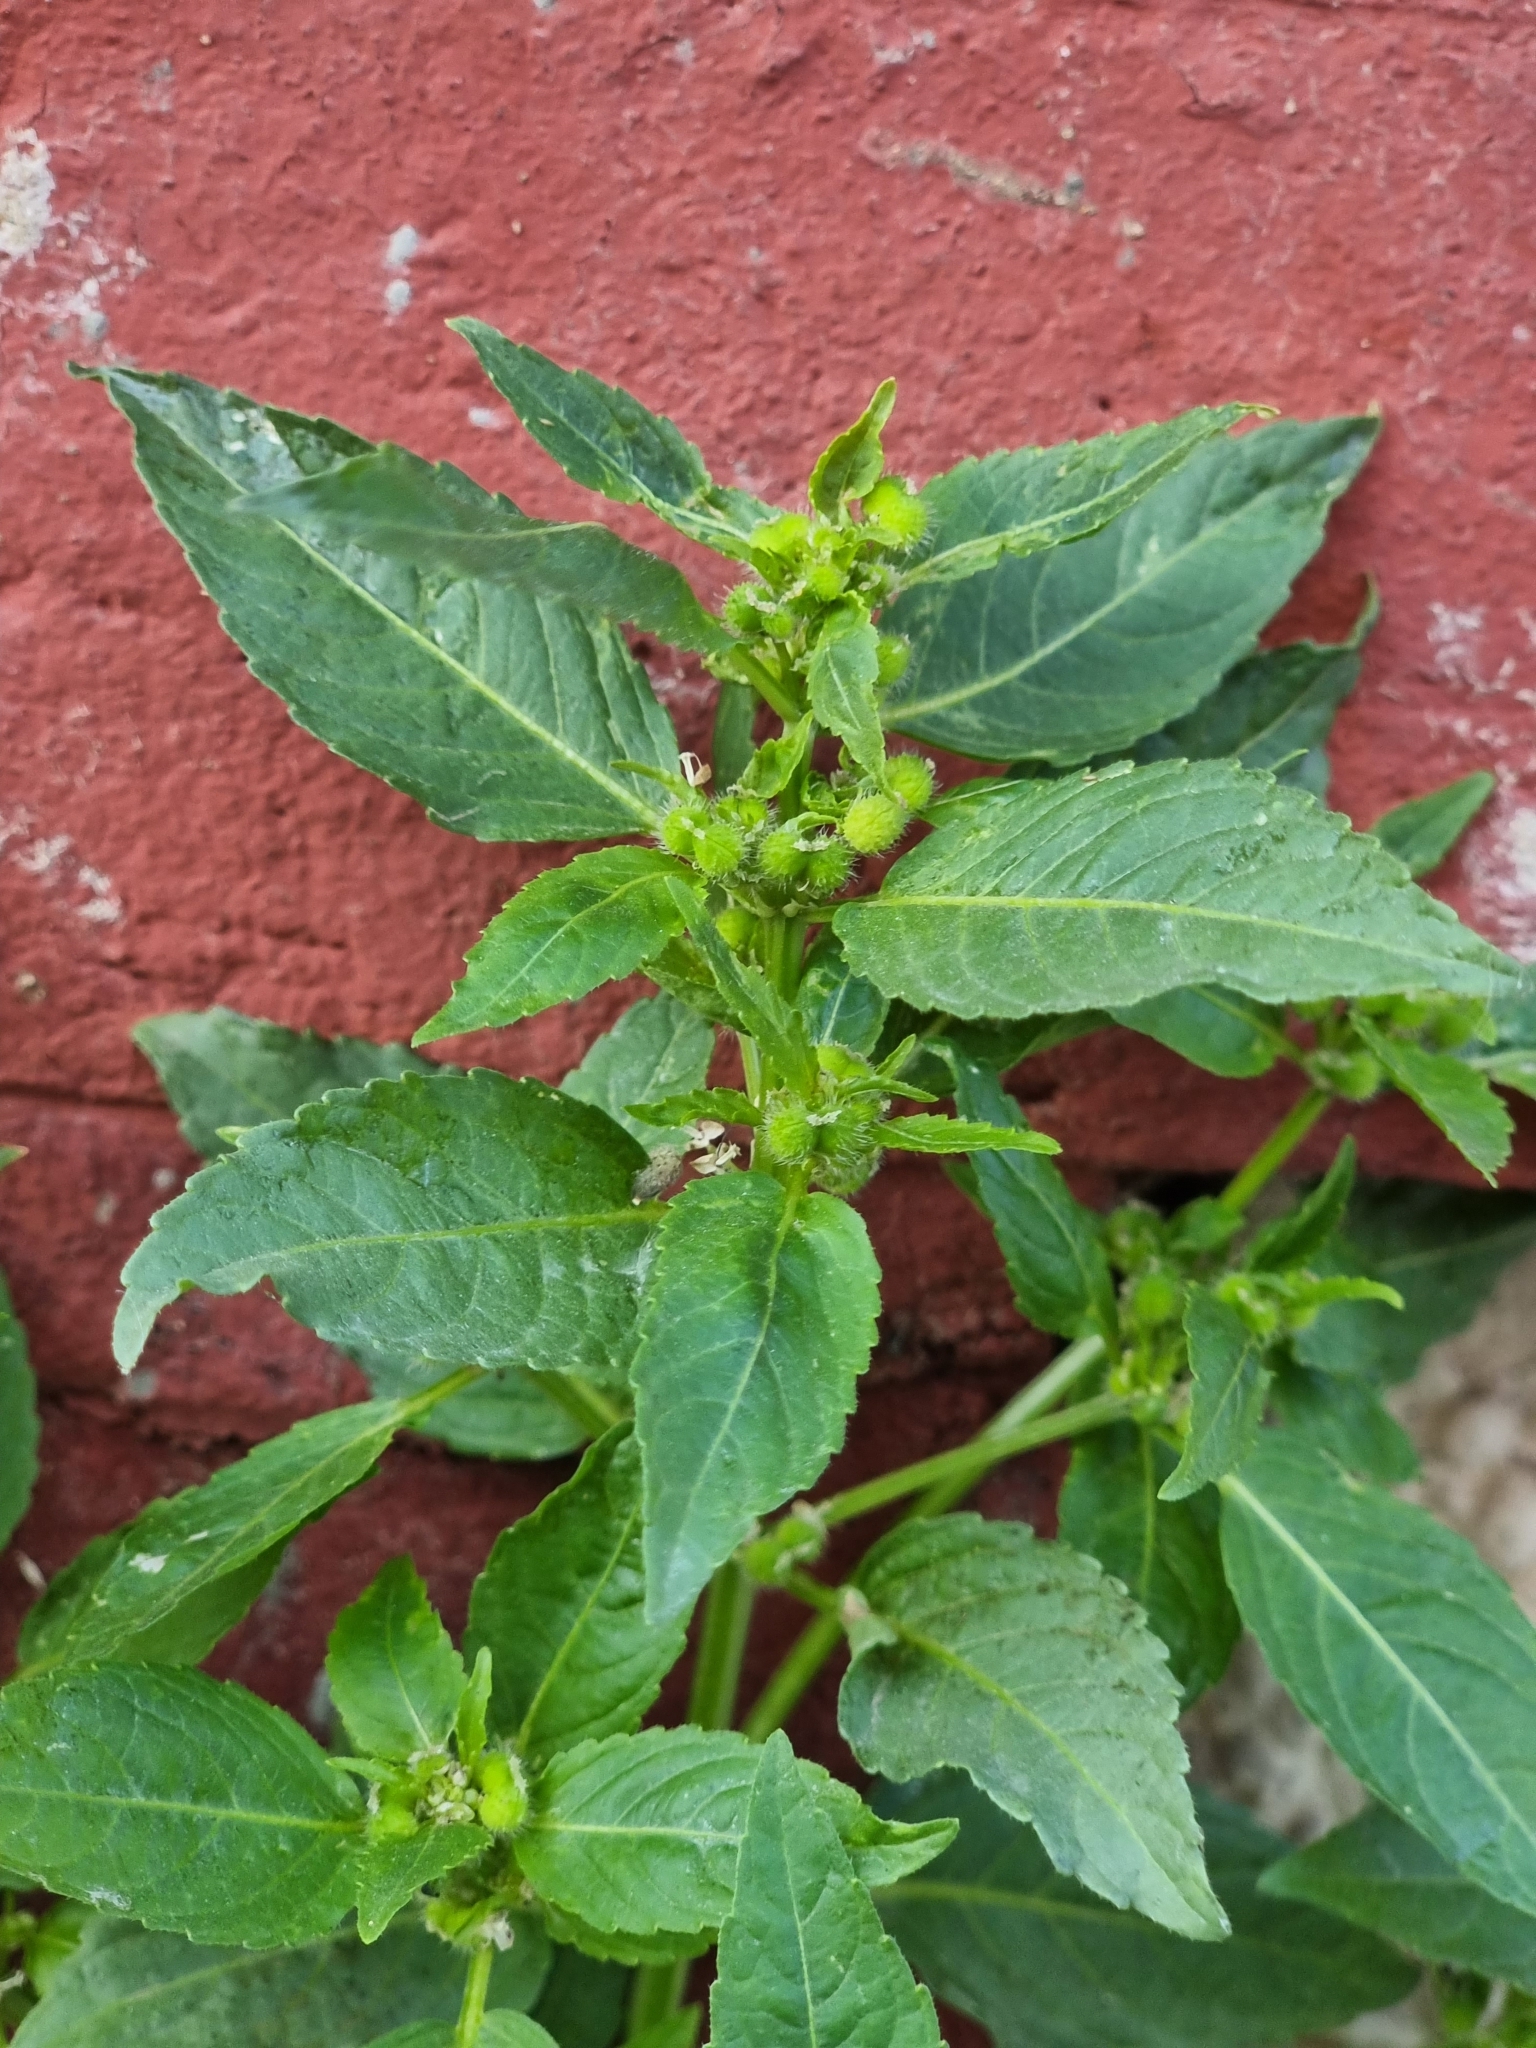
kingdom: Plantae
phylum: Tracheophyta
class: Magnoliopsida
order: Malpighiales
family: Euphorbiaceae
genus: Mercurialis
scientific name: Mercurialis annua
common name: Annual mercury
